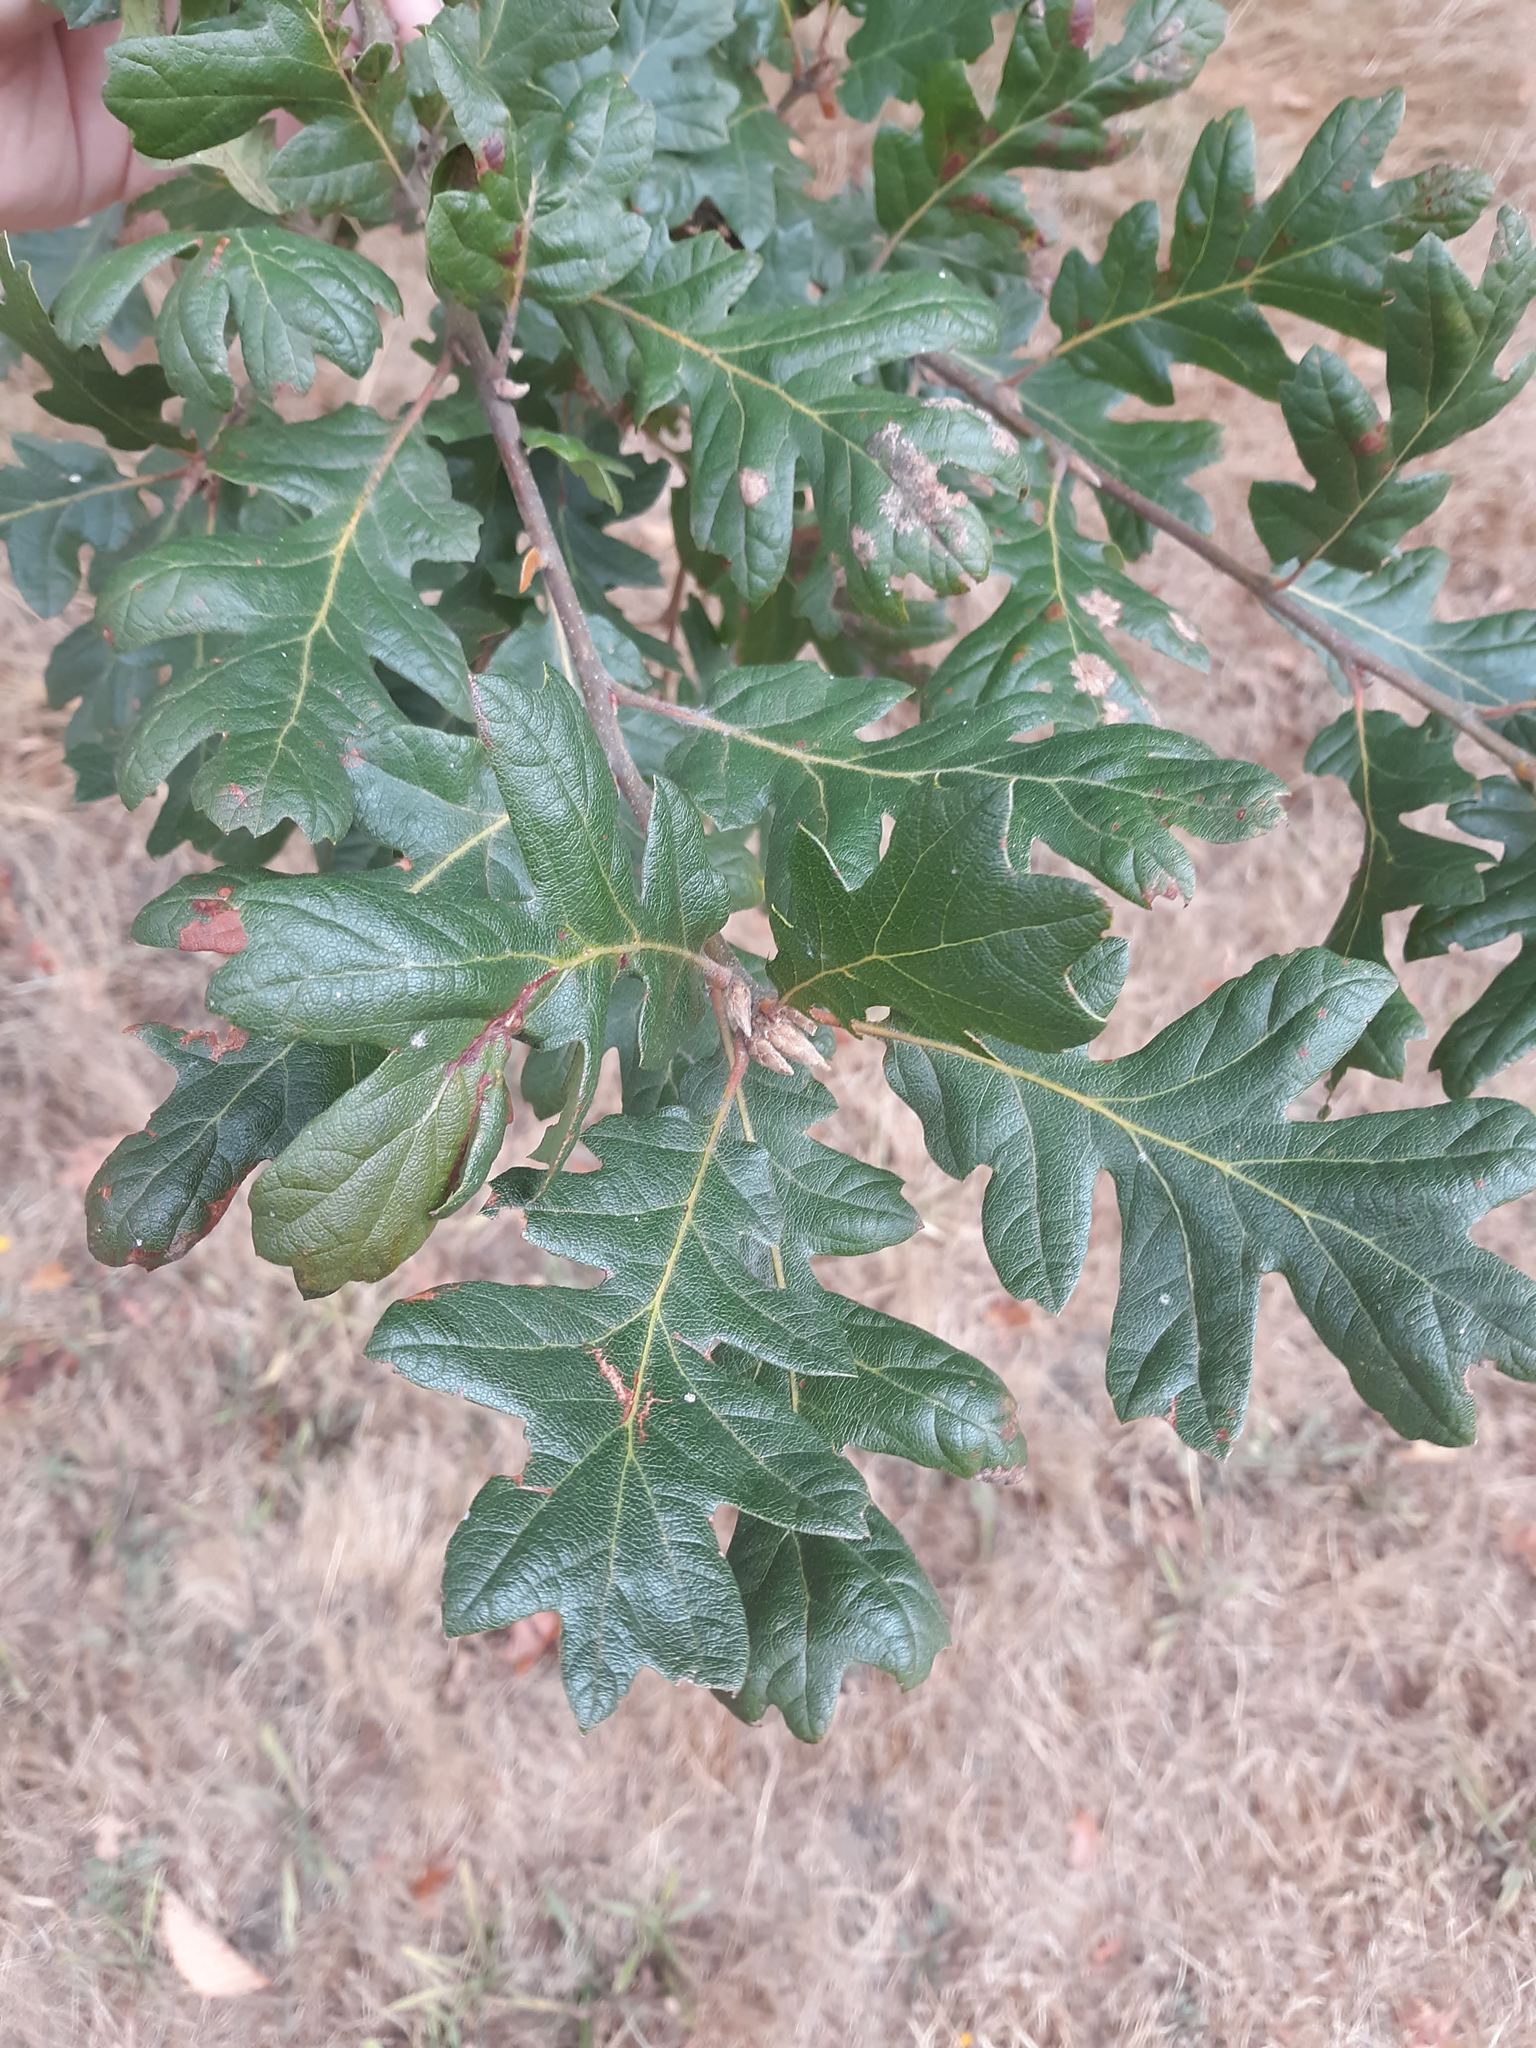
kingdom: Plantae
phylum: Tracheophyta
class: Magnoliopsida
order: Fagales
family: Fagaceae
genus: Quercus
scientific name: Quercus garryana
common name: Garry oak
